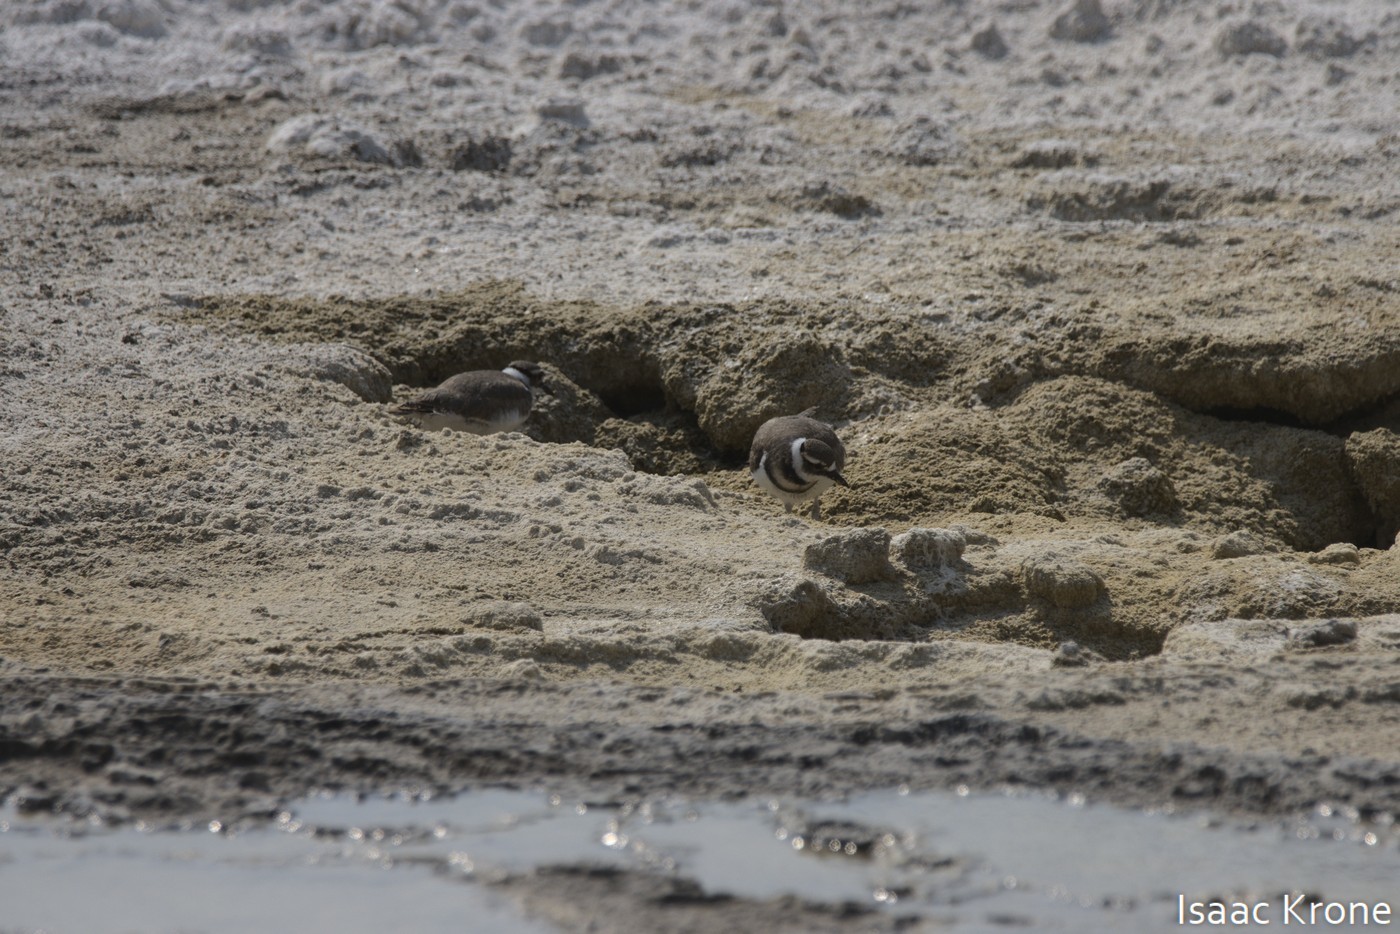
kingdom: Animalia
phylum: Chordata
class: Aves
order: Charadriiformes
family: Charadriidae
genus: Charadrius
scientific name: Charadrius vociferus
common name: Killdeer
